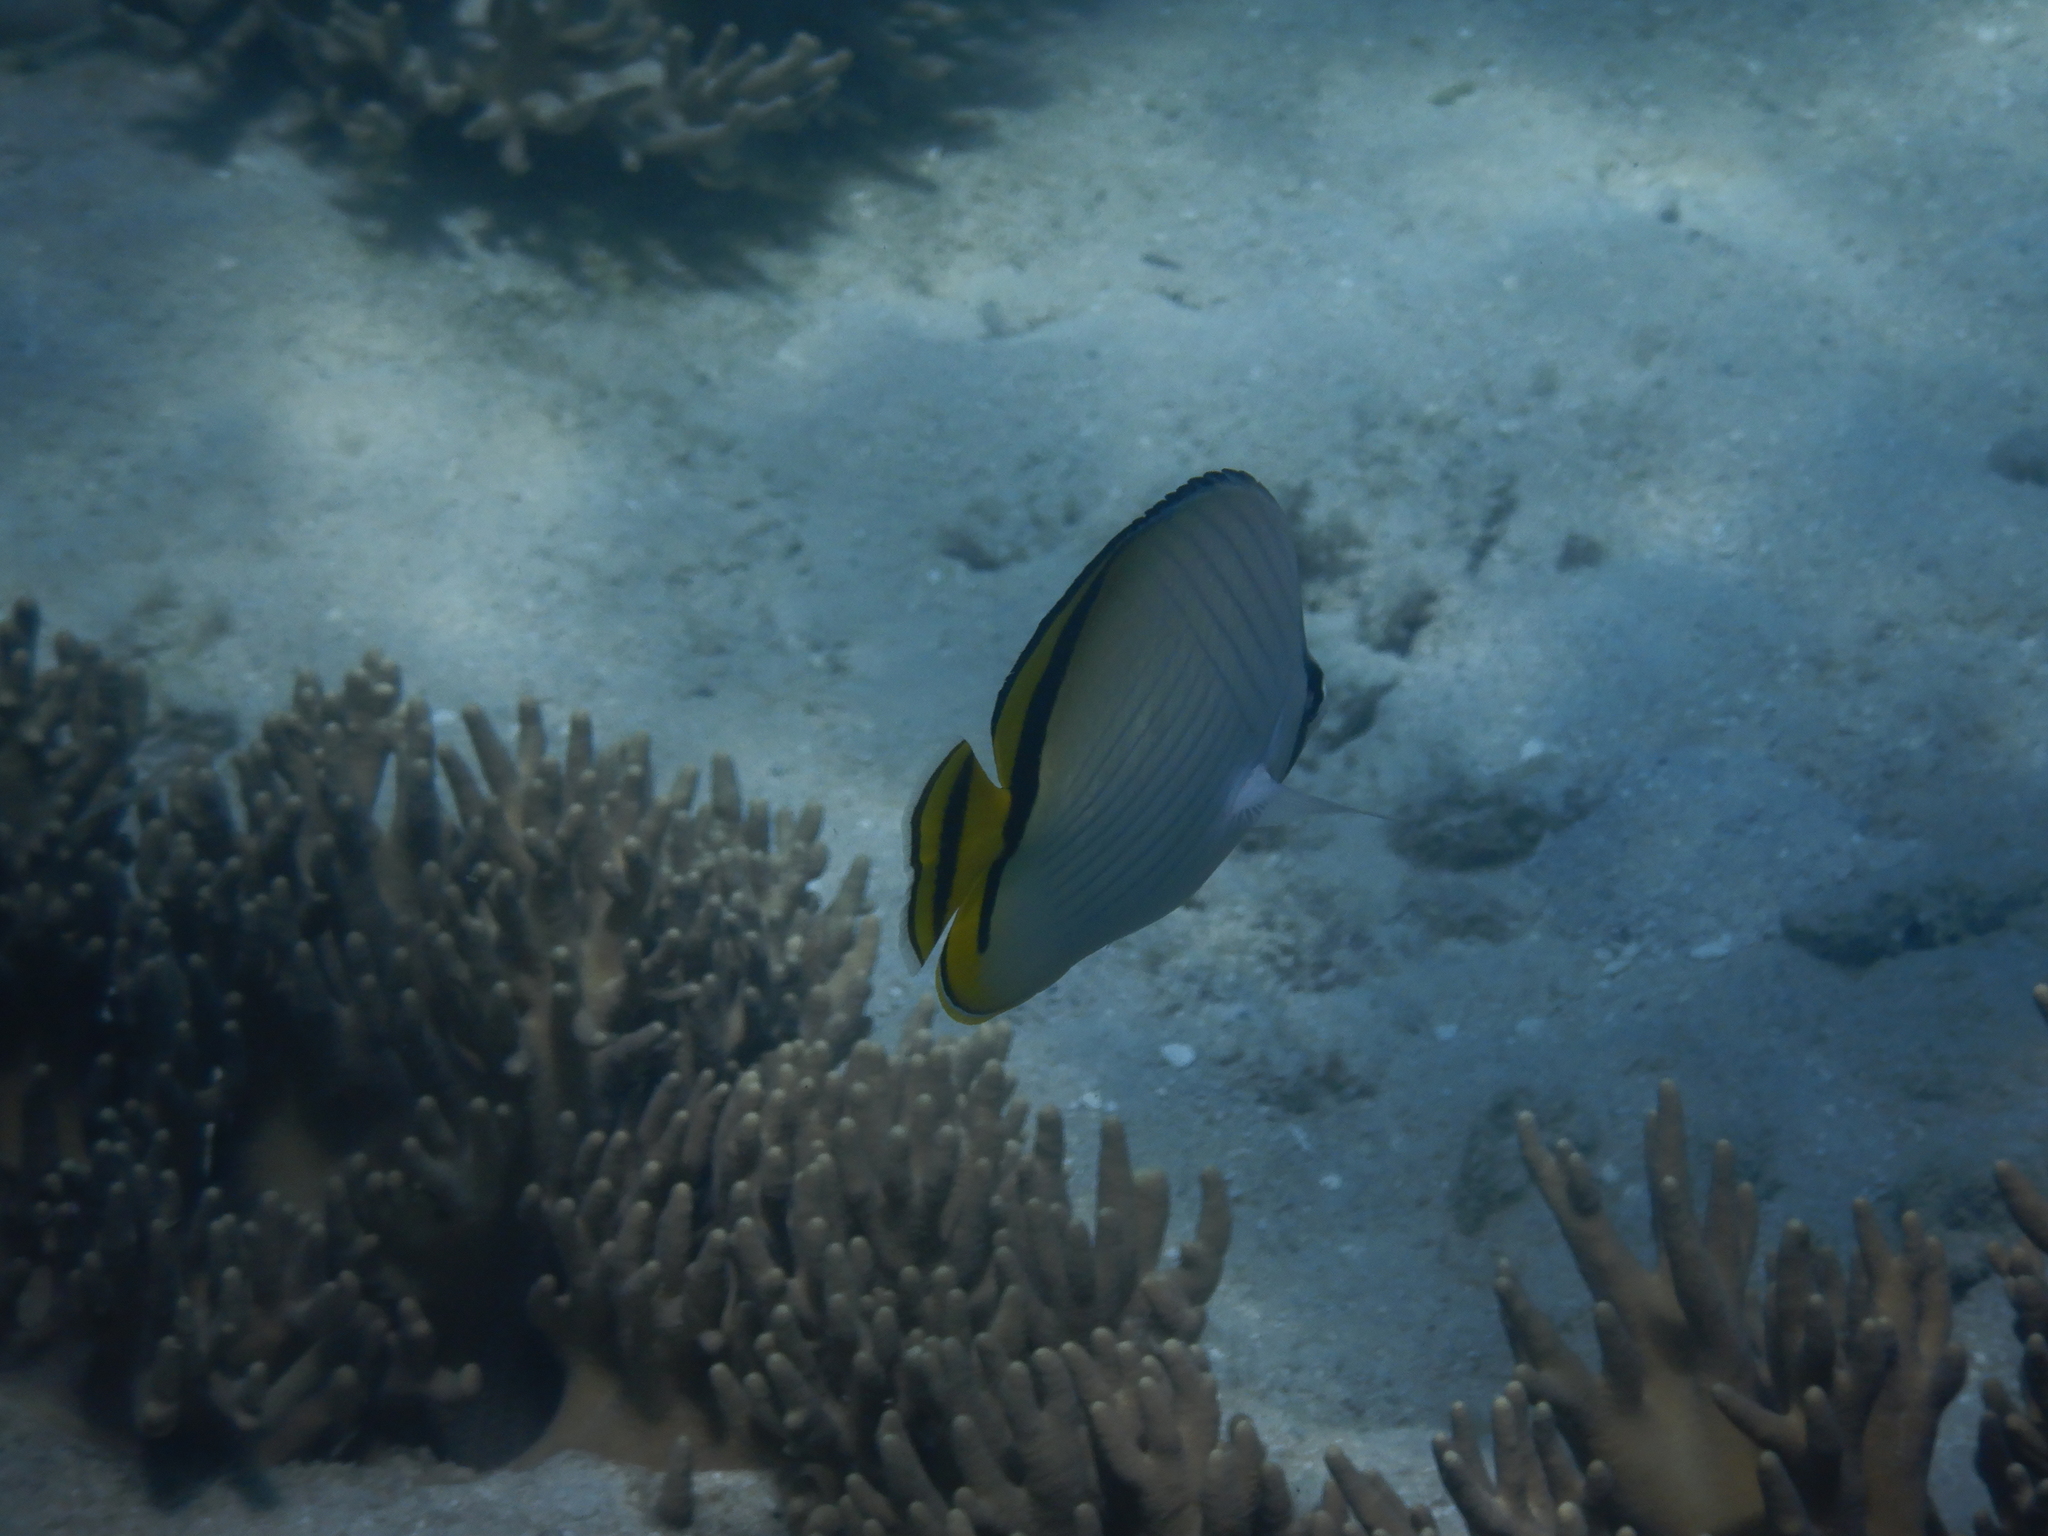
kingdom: Animalia
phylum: Chordata
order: Perciformes
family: Chaetodontidae
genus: Chaetodon
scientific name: Chaetodon vagabundus
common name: Vagabond butterflyfish
